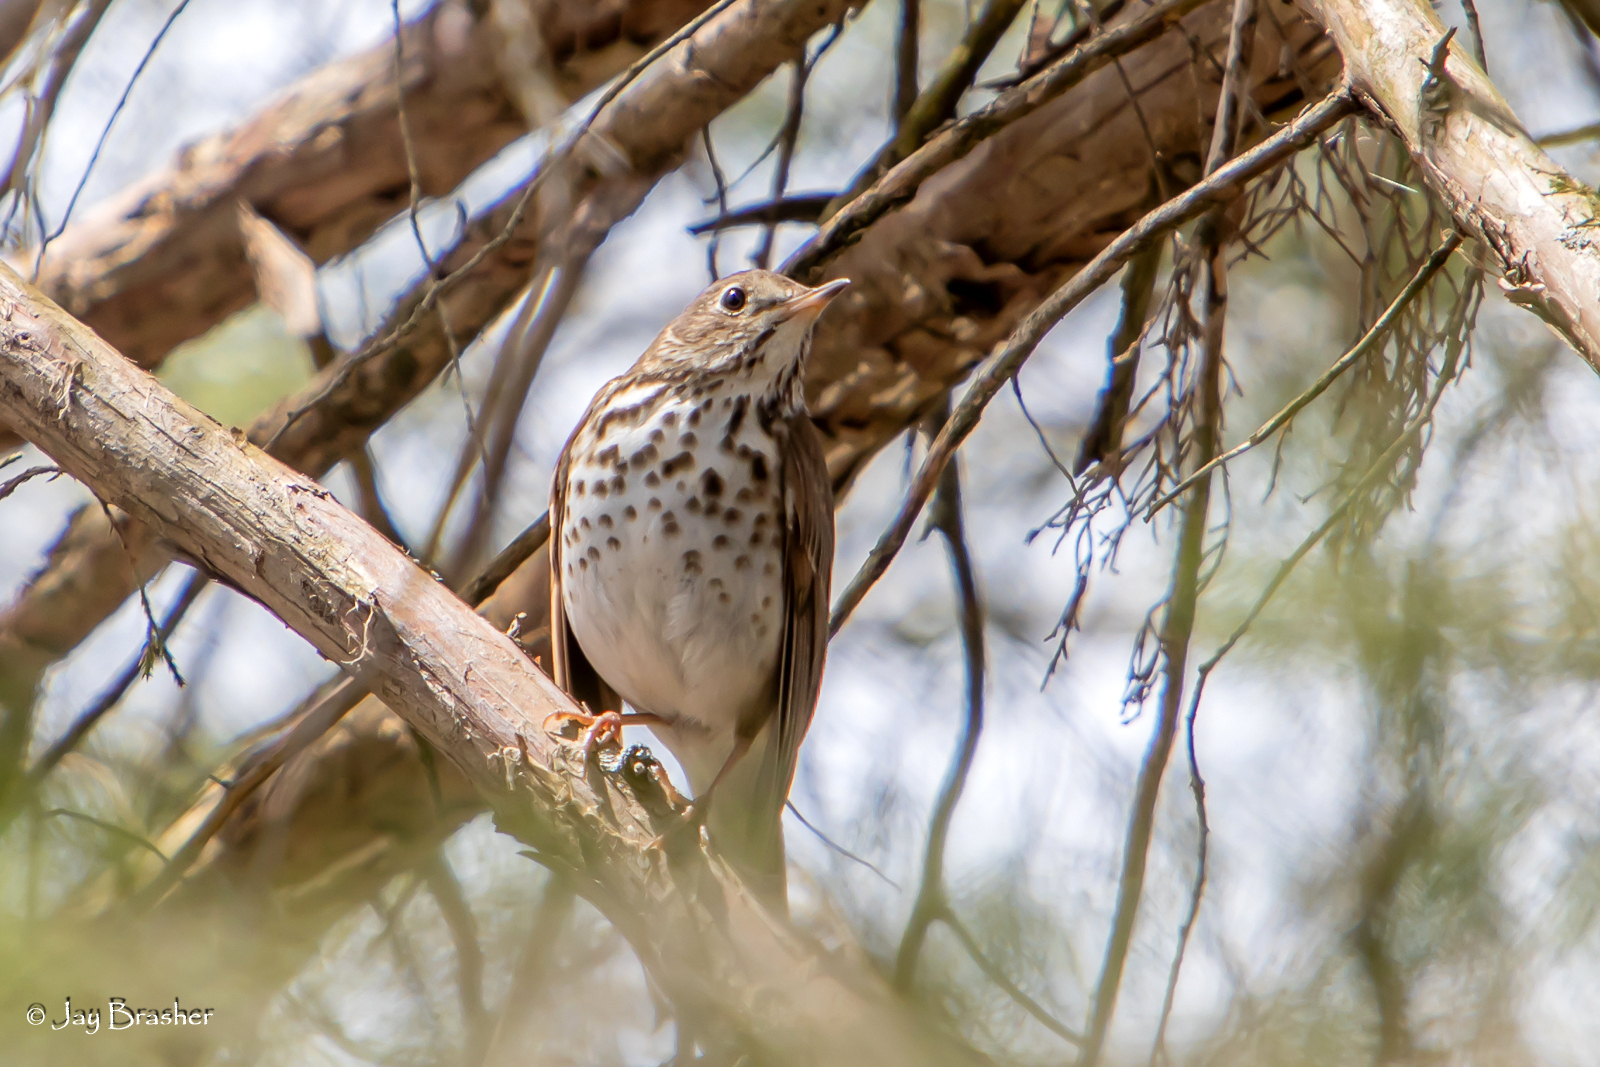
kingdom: Animalia
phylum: Chordata
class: Aves
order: Passeriformes
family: Turdidae
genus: Catharus
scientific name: Catharus guttatus
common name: Hermit thrush
